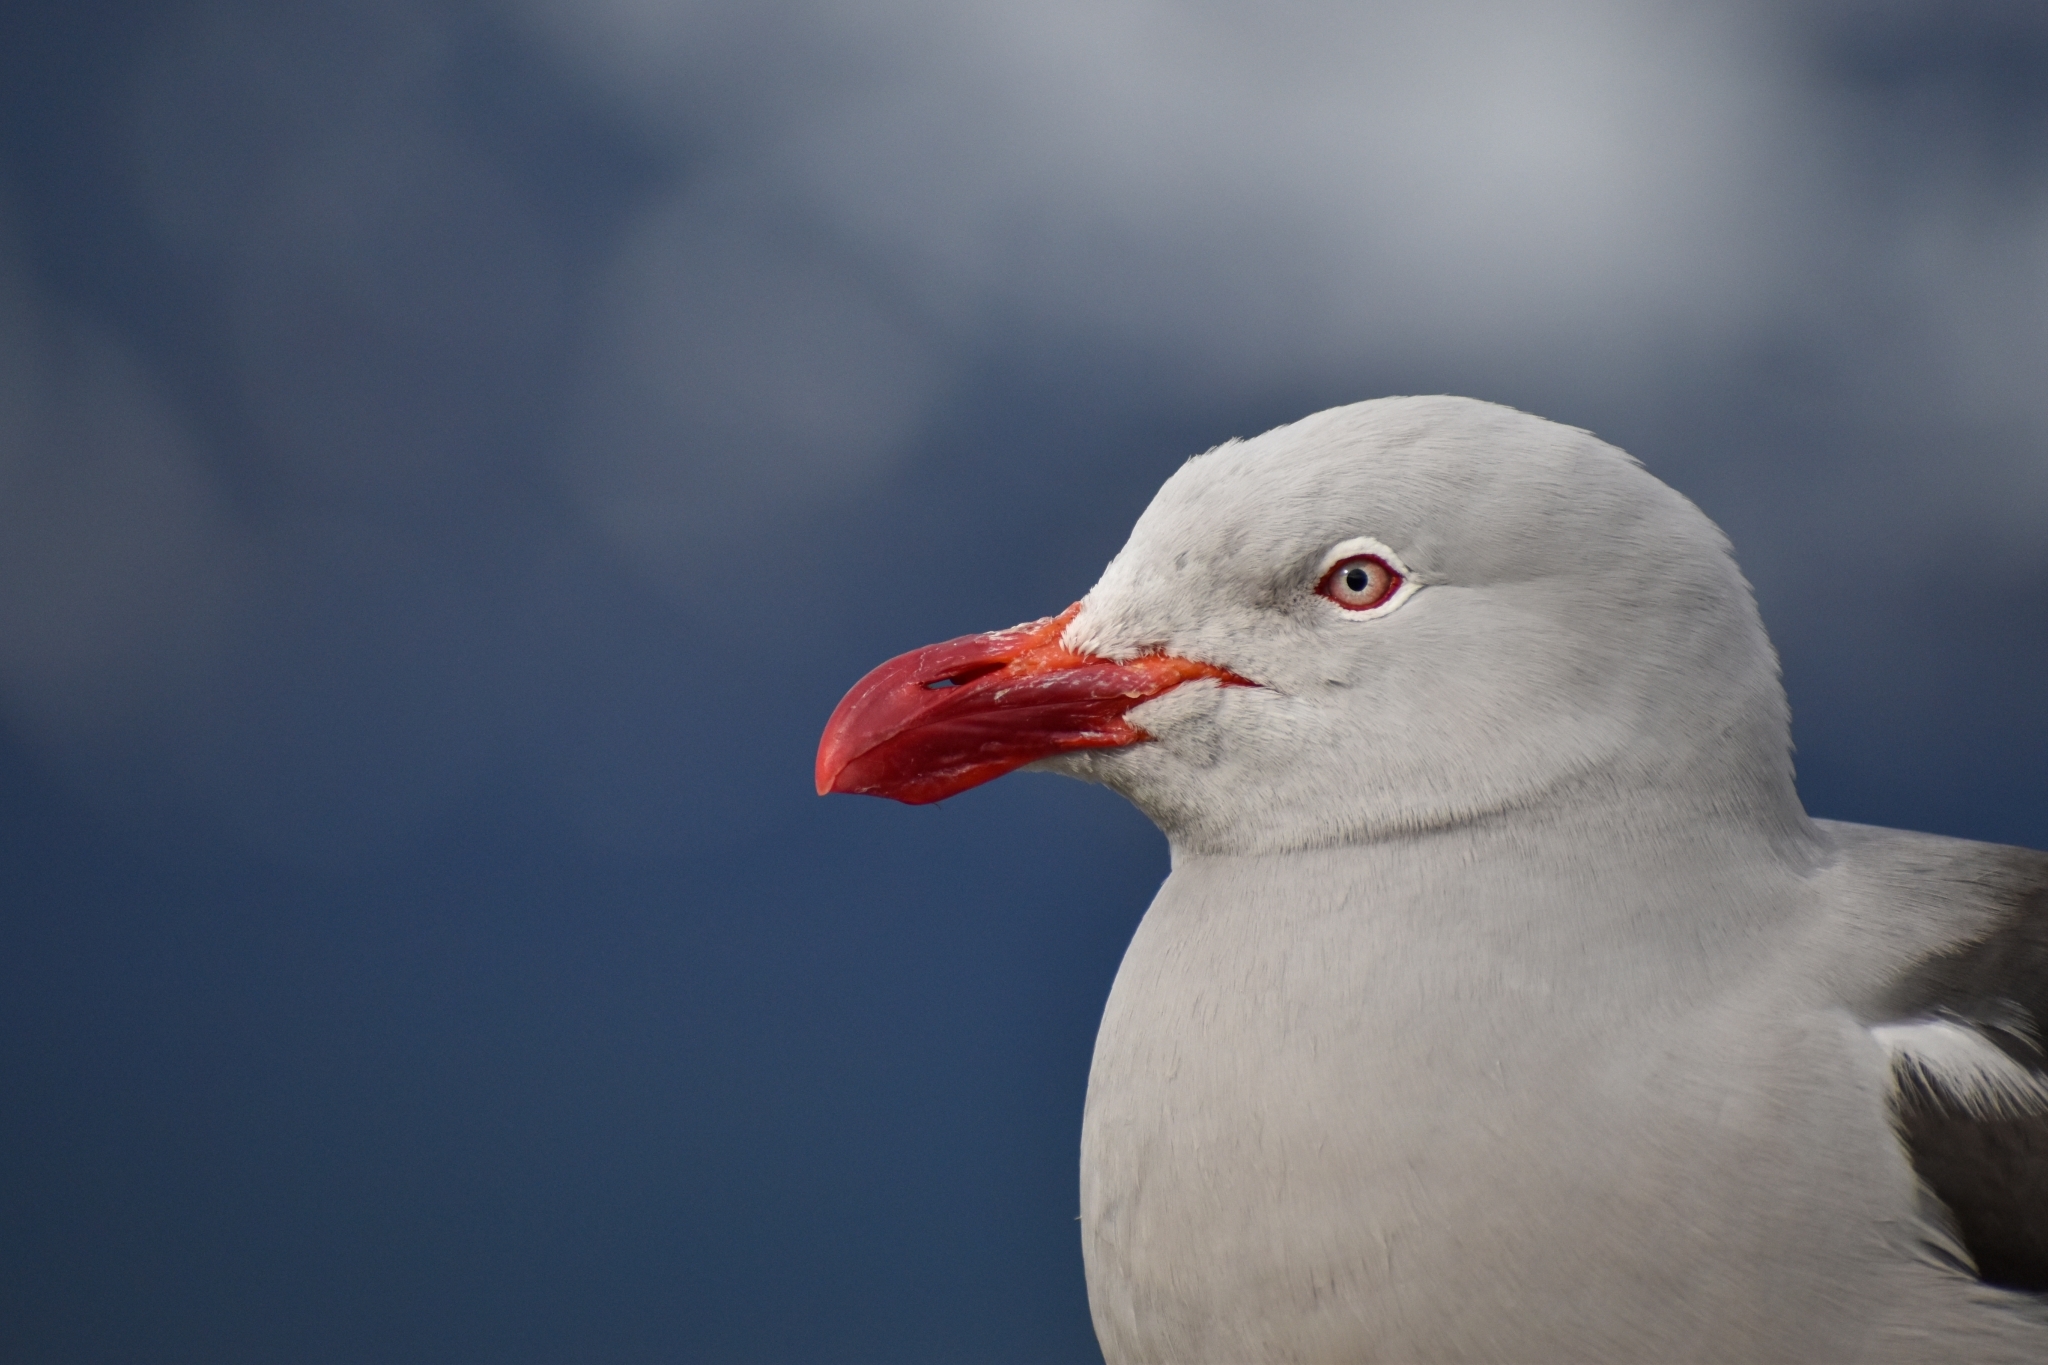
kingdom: Animalia
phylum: Chordata
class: Aves
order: Charadriiformes
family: Laridae
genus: Leucophaeus
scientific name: Leucophaeus scoresbii
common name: Dolphin gull
